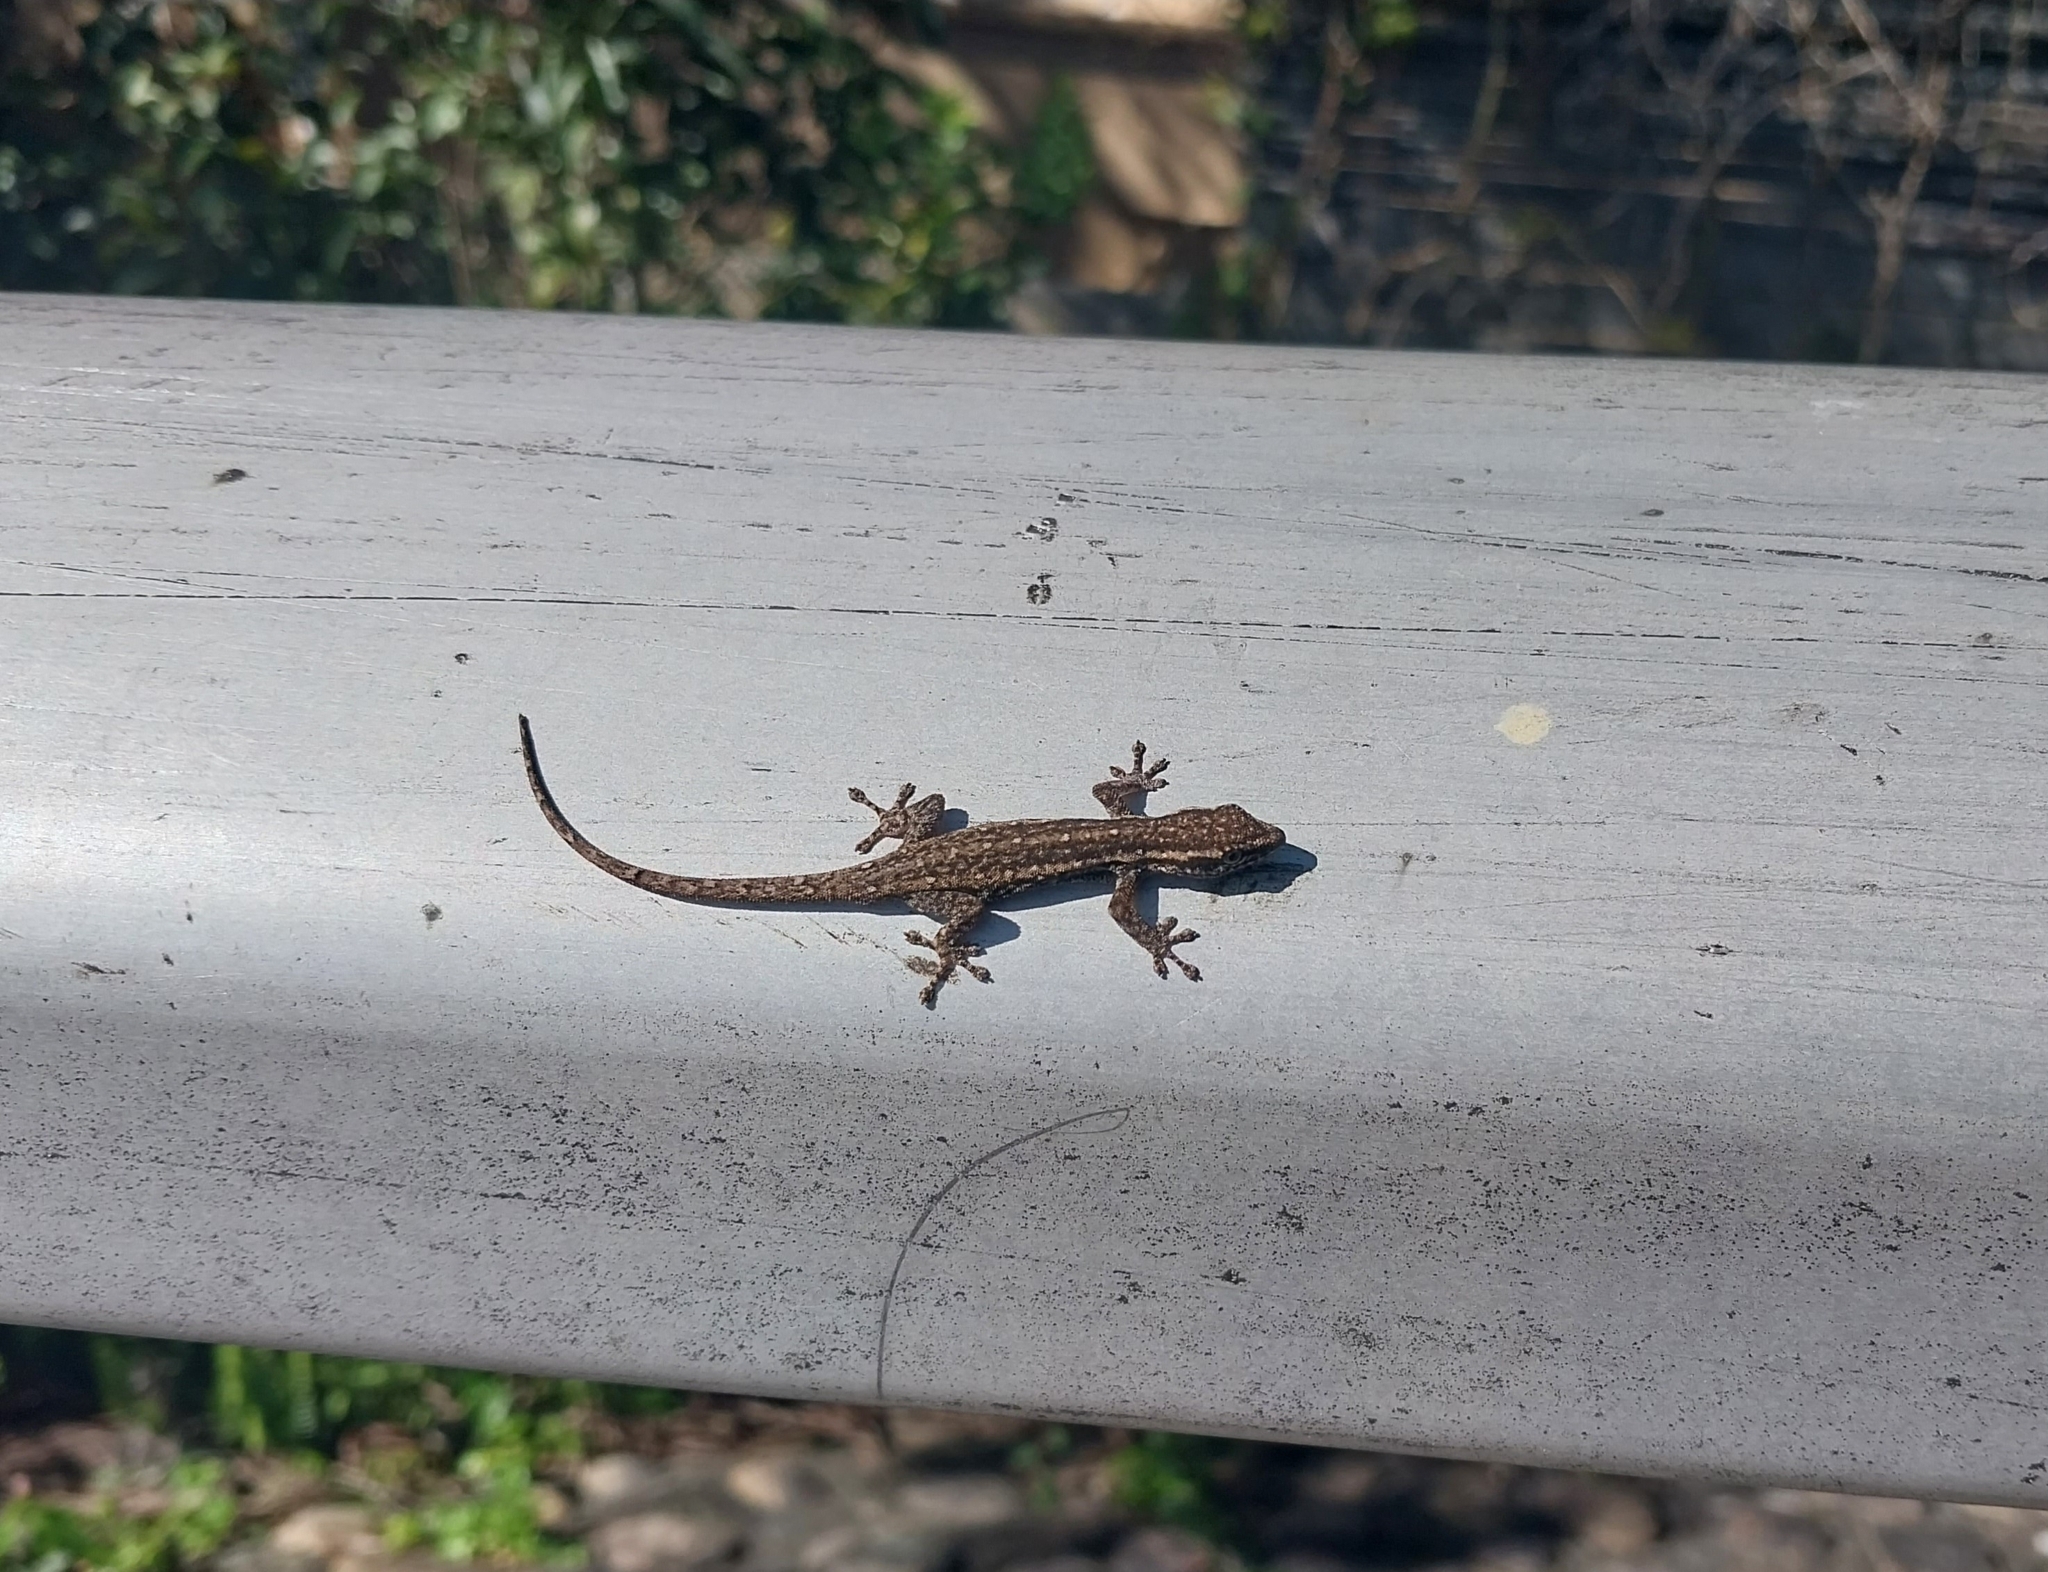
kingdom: Animalia
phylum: Chordata
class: Squamata
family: Gekkonidae
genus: Lygodactylus
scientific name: Lygodactylus capensis
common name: Cape dwarf gecko
